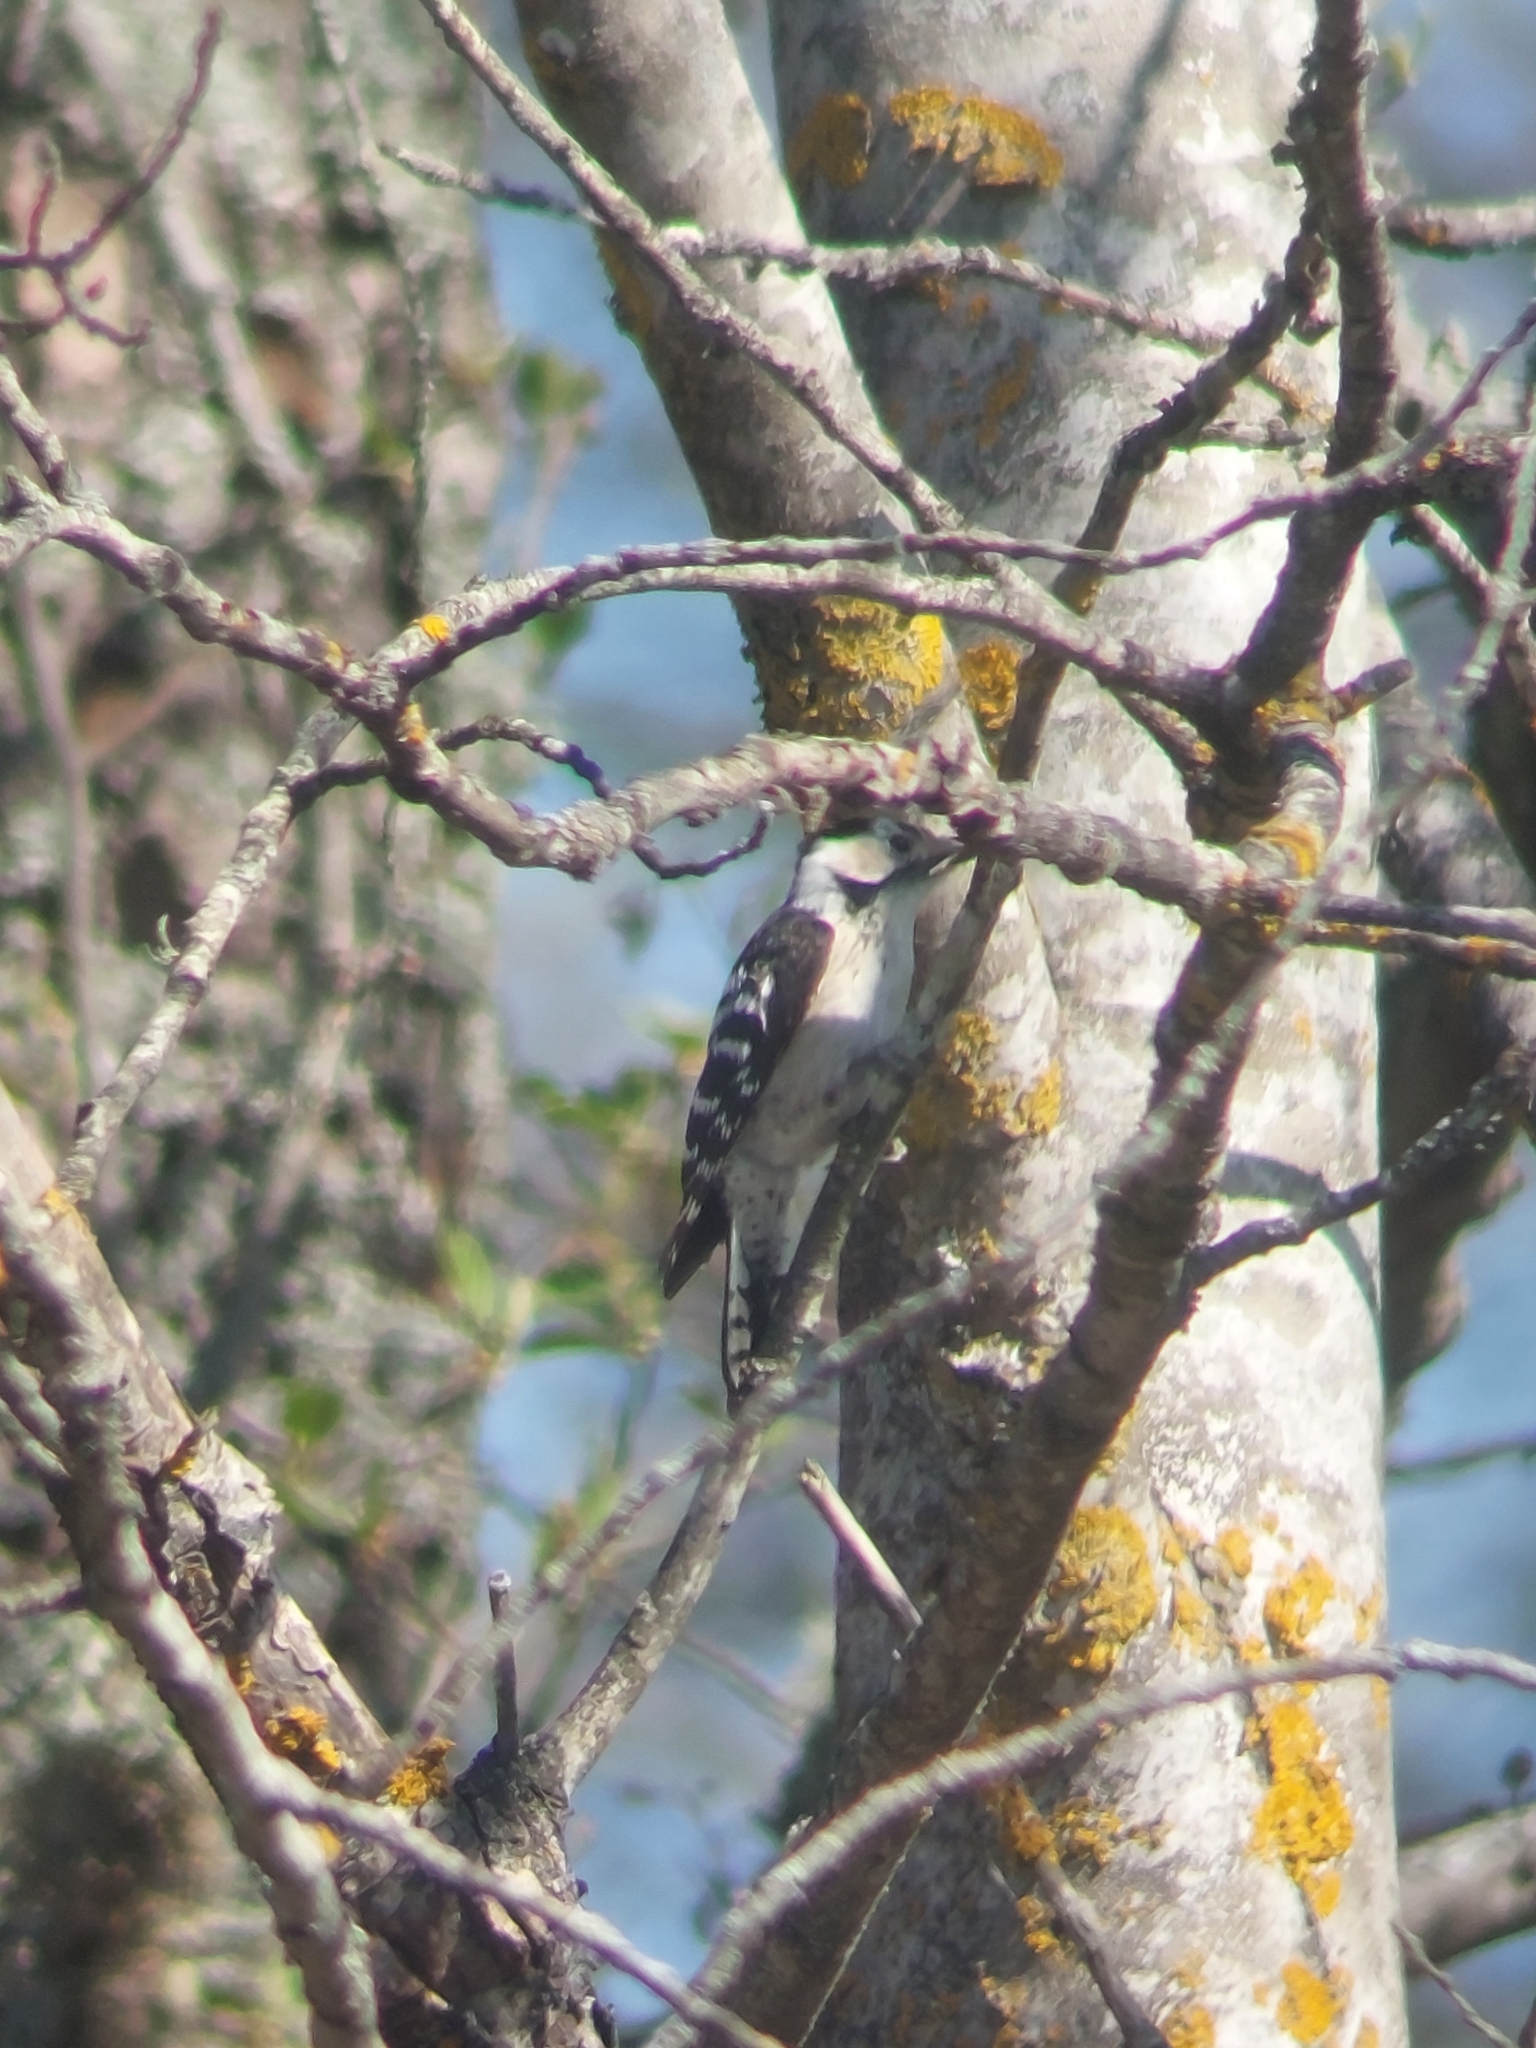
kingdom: Animalia
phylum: Chordata
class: Aves
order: Piciformes
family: Picidae
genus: Dryobates
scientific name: Dryobates minor
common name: Lesser spotted woodpecker
